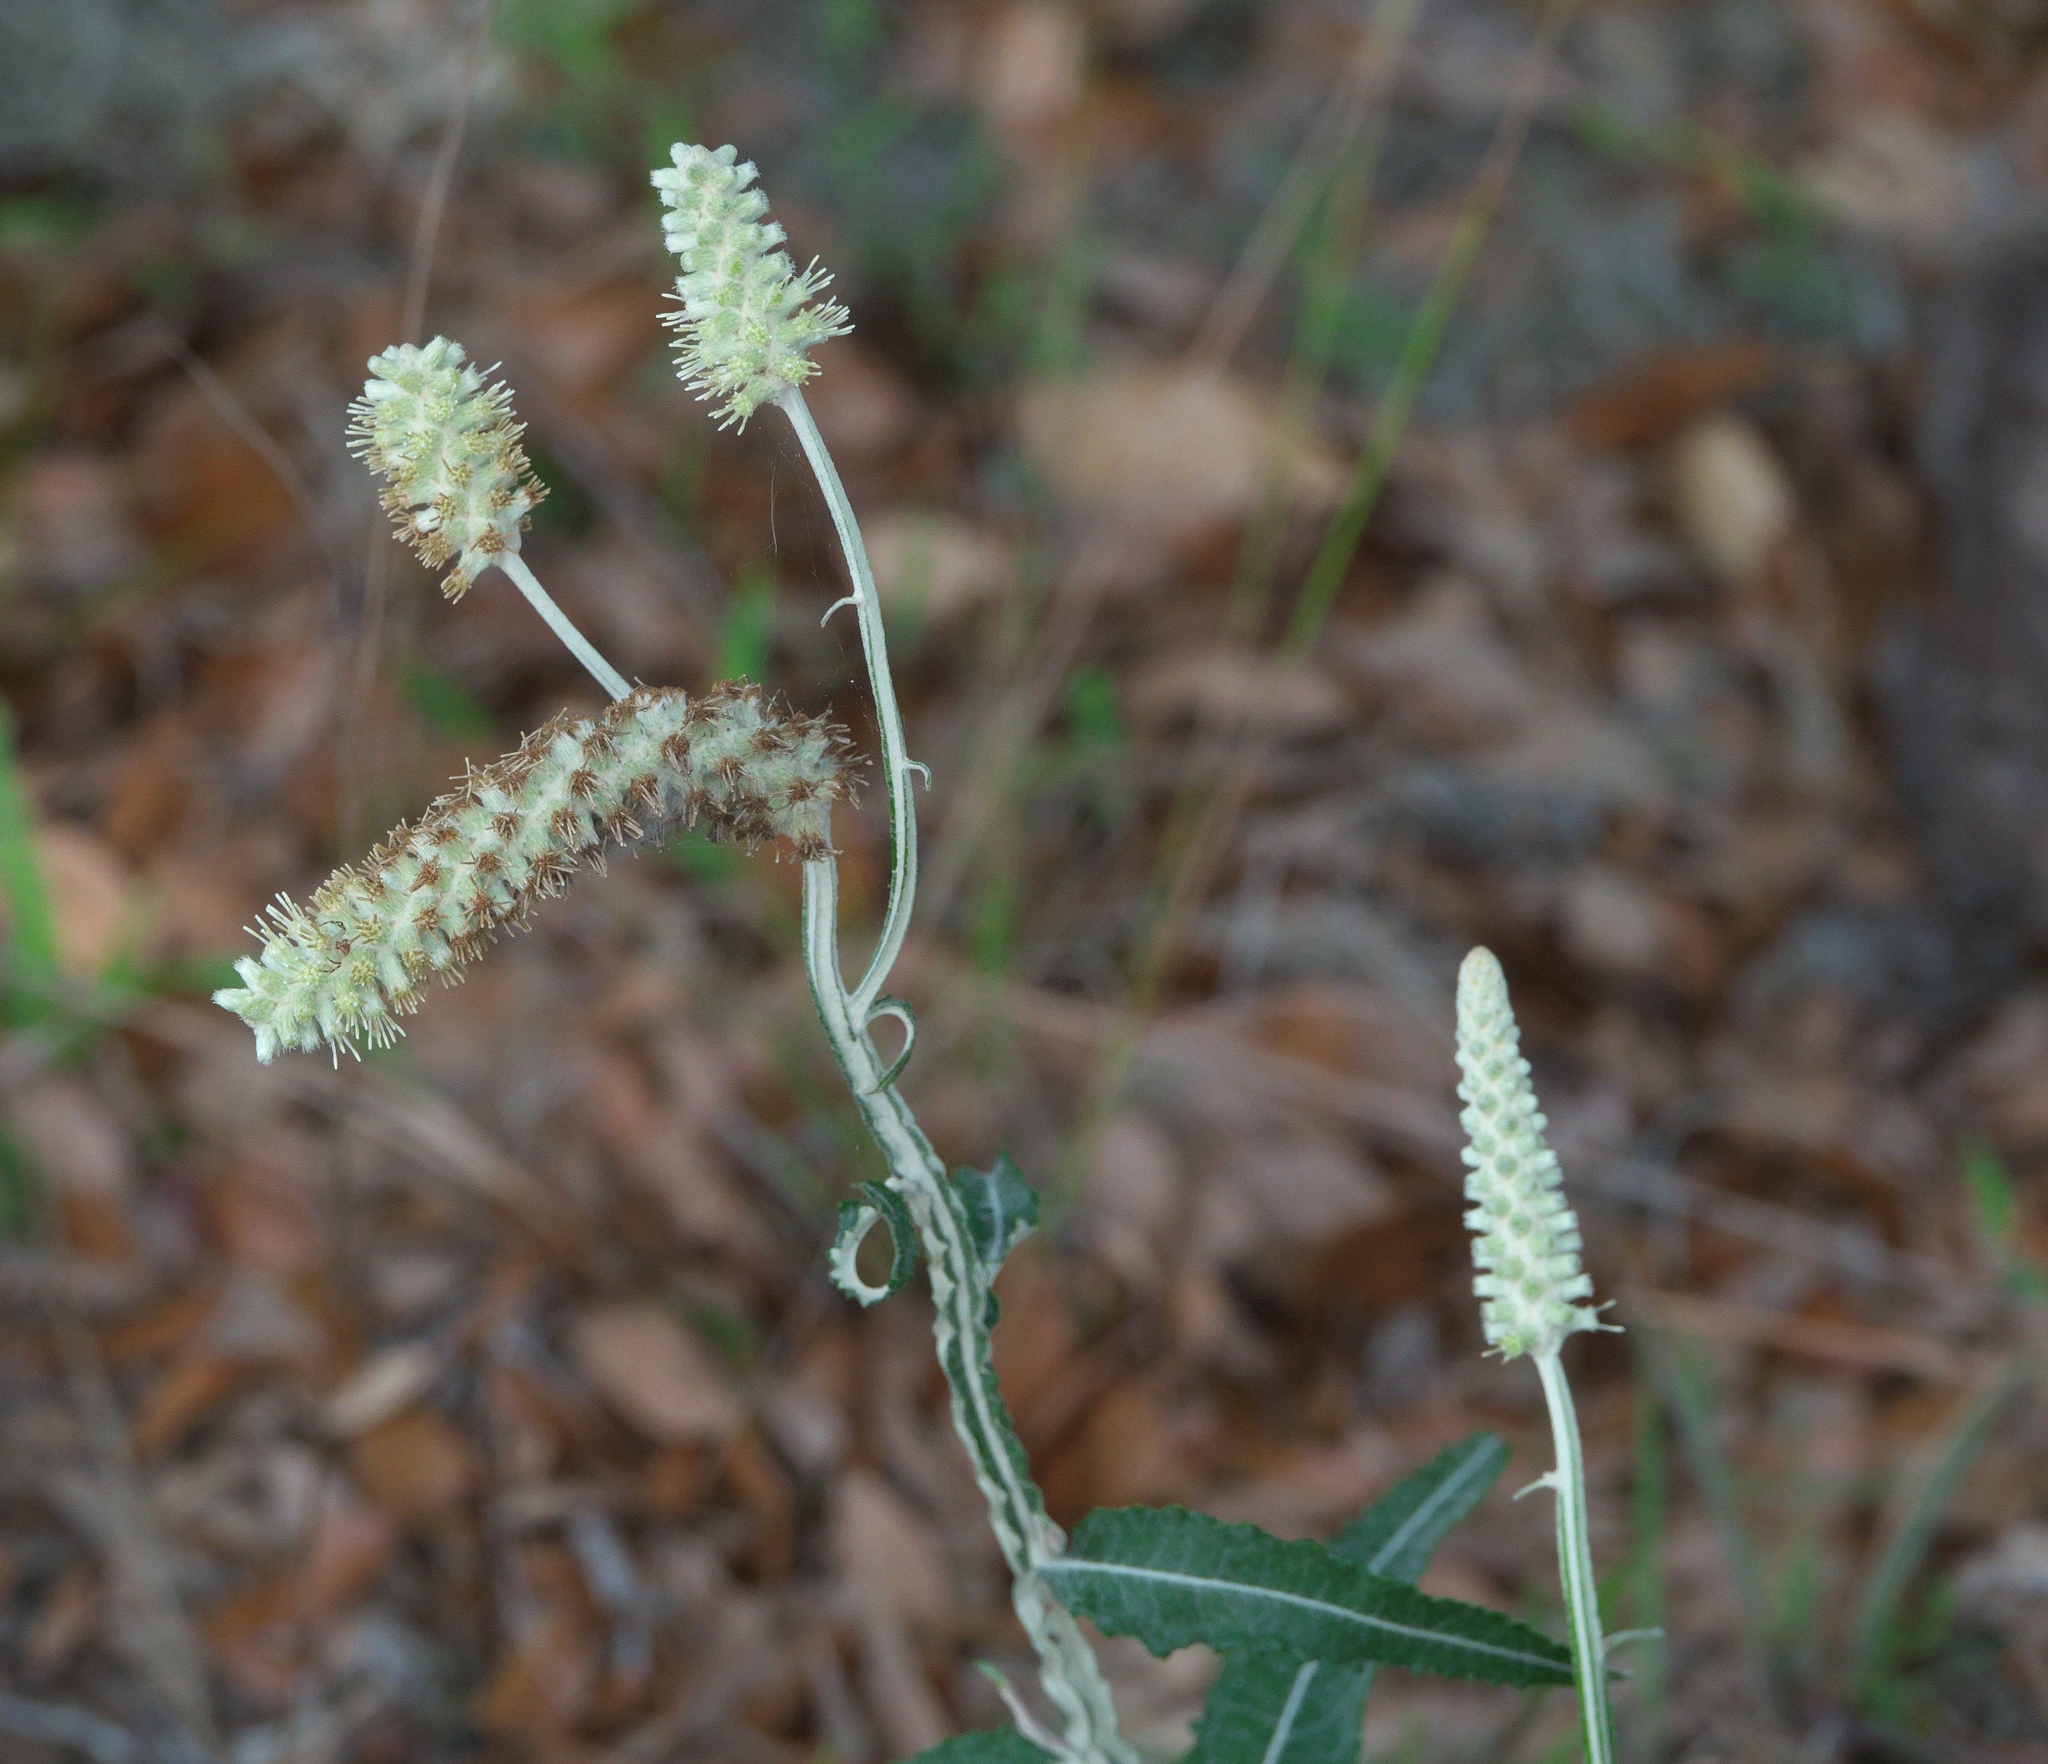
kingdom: Plantae
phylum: Tracheophyta
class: Magnoliopsida
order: Asterales
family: Asteraceae
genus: Pterocaulon
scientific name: Pterocaulon pycnostachyum
